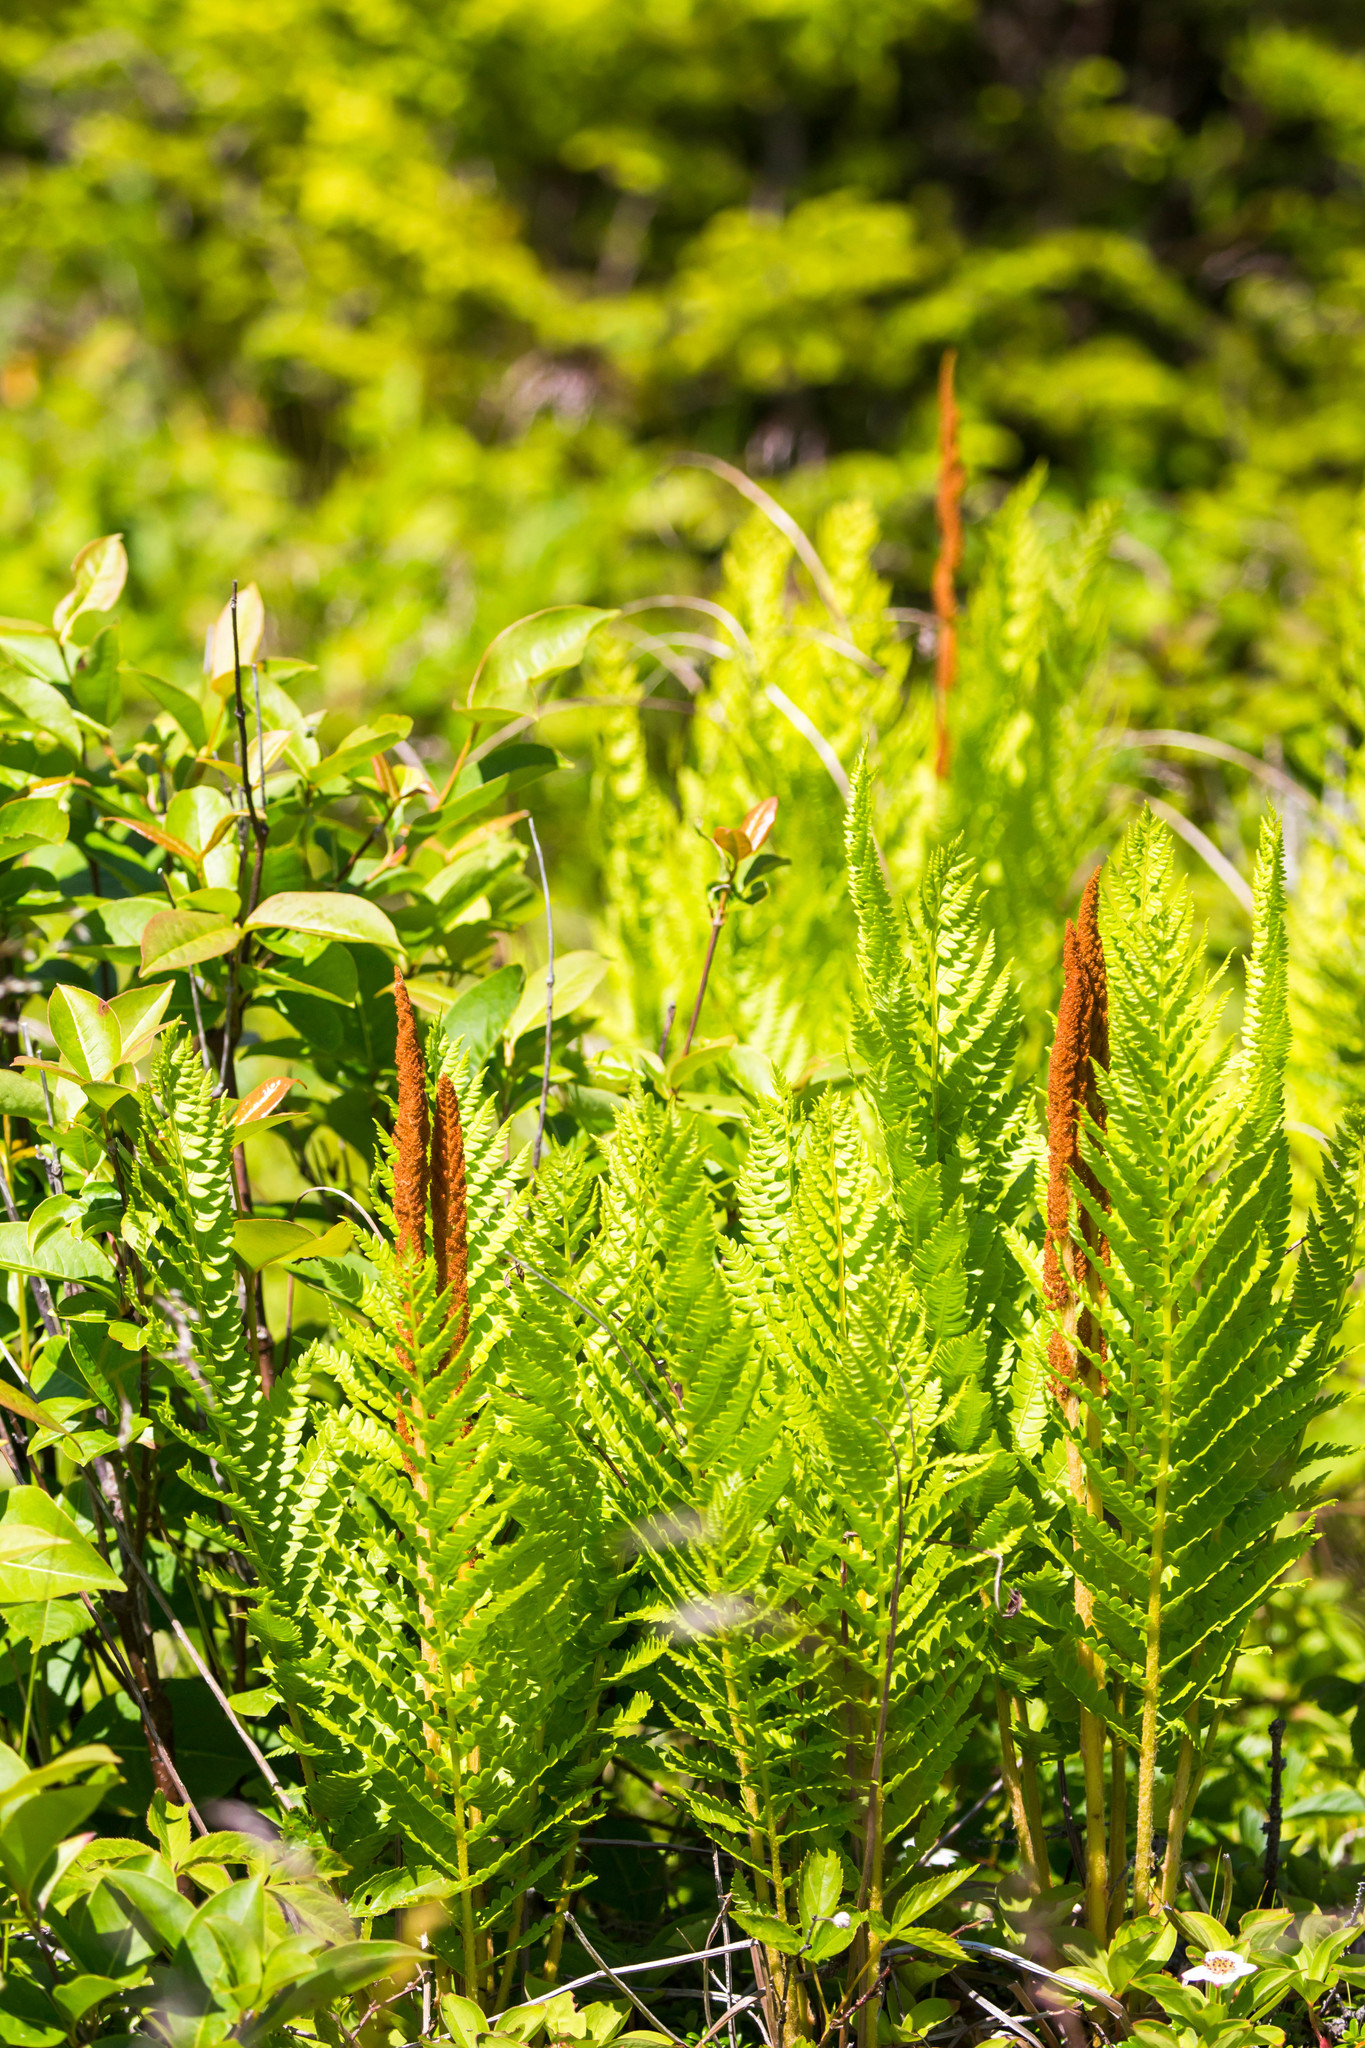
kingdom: Plantae
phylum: Tracheophyta
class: Polypodiopsida
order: Osmundales
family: Osmundaceae
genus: Osmundastrum
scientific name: Osmundastrum cinnamomeum
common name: Cinnamon fern
